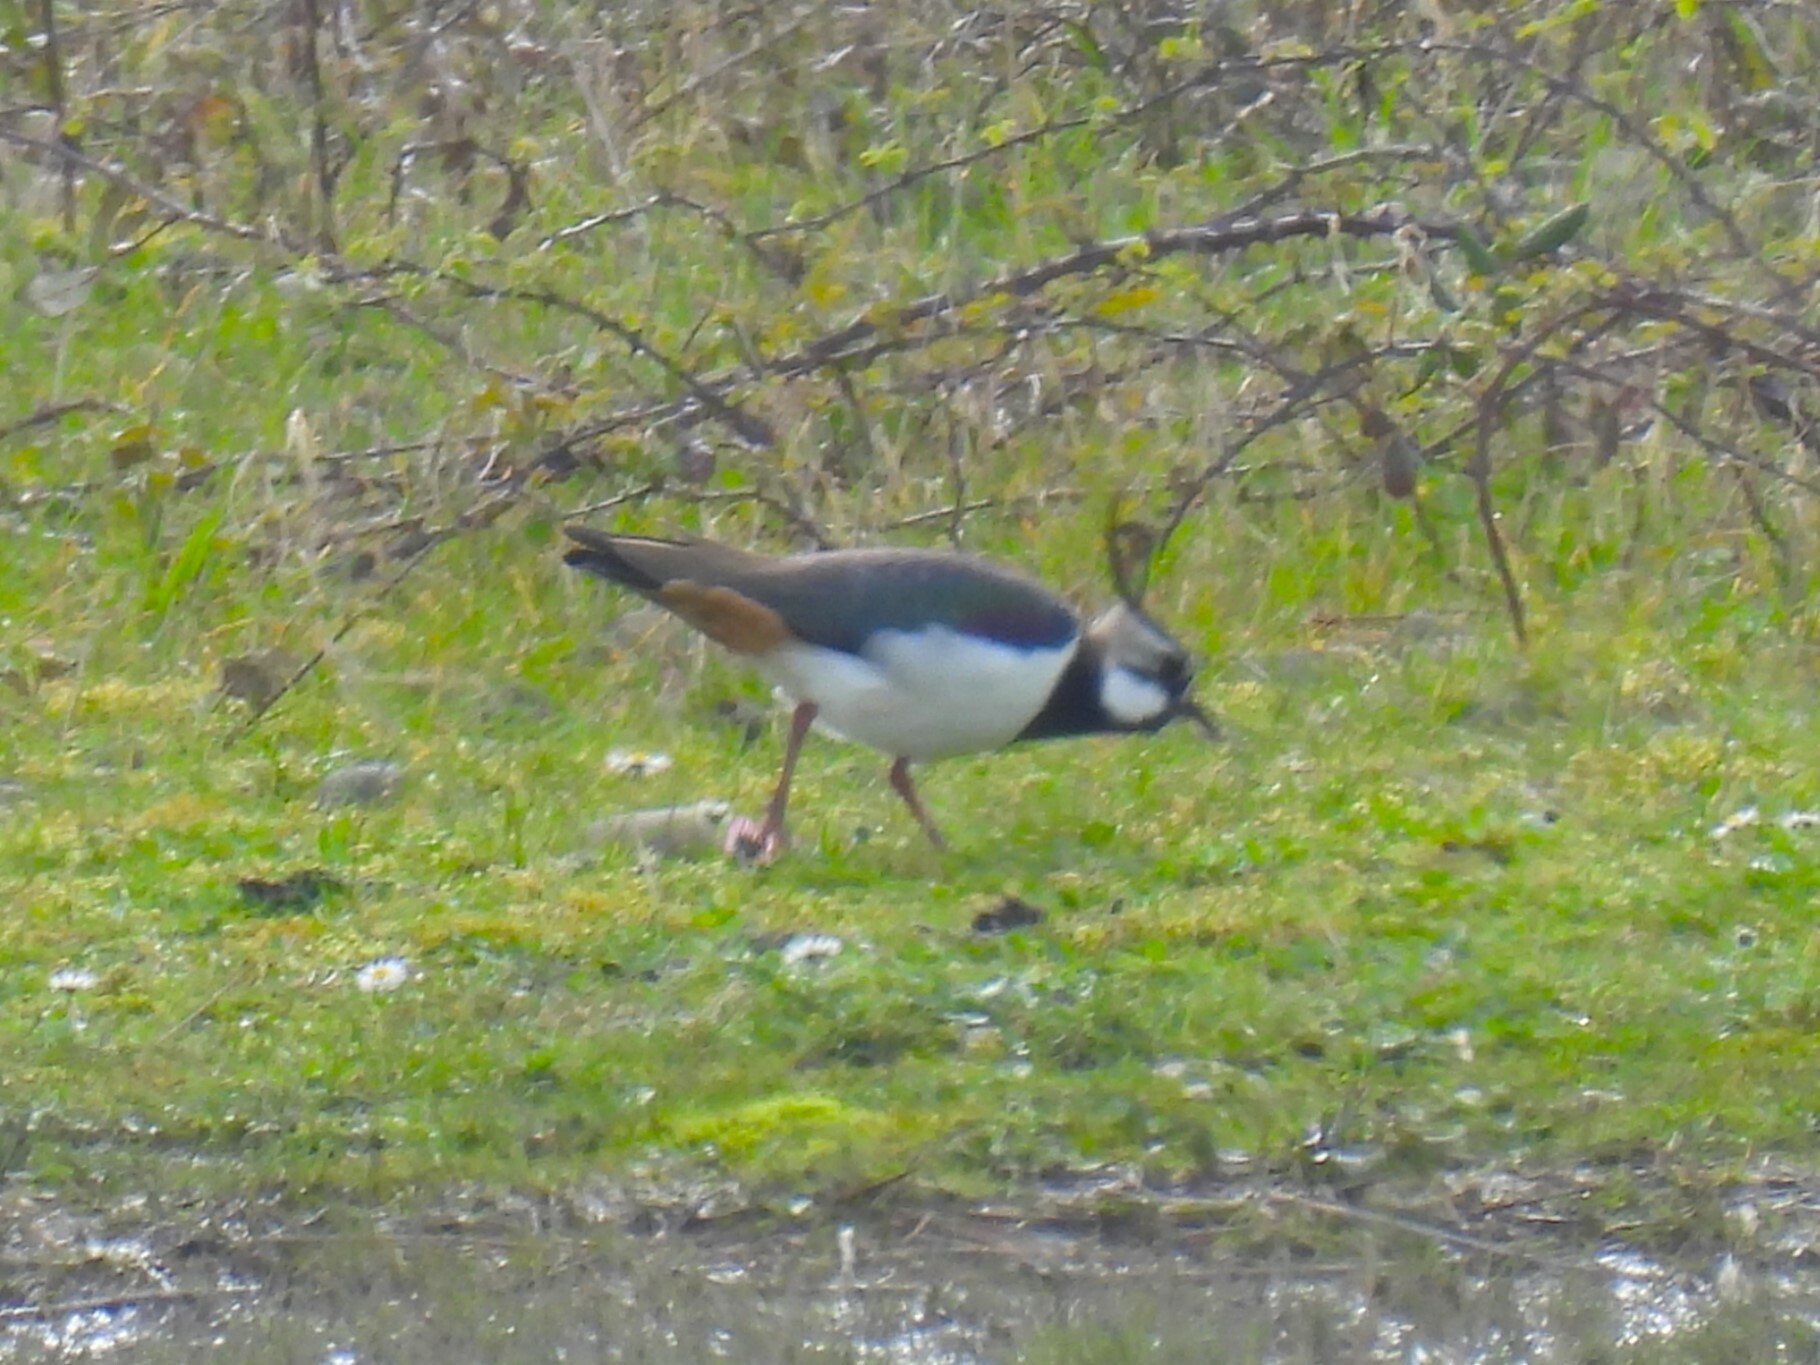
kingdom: Animalia
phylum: Chordata
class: Aves
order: Charadriiformes
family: Charadriidae
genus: Vanellus
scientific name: Vanellus vanellus
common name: Northern lapwing
